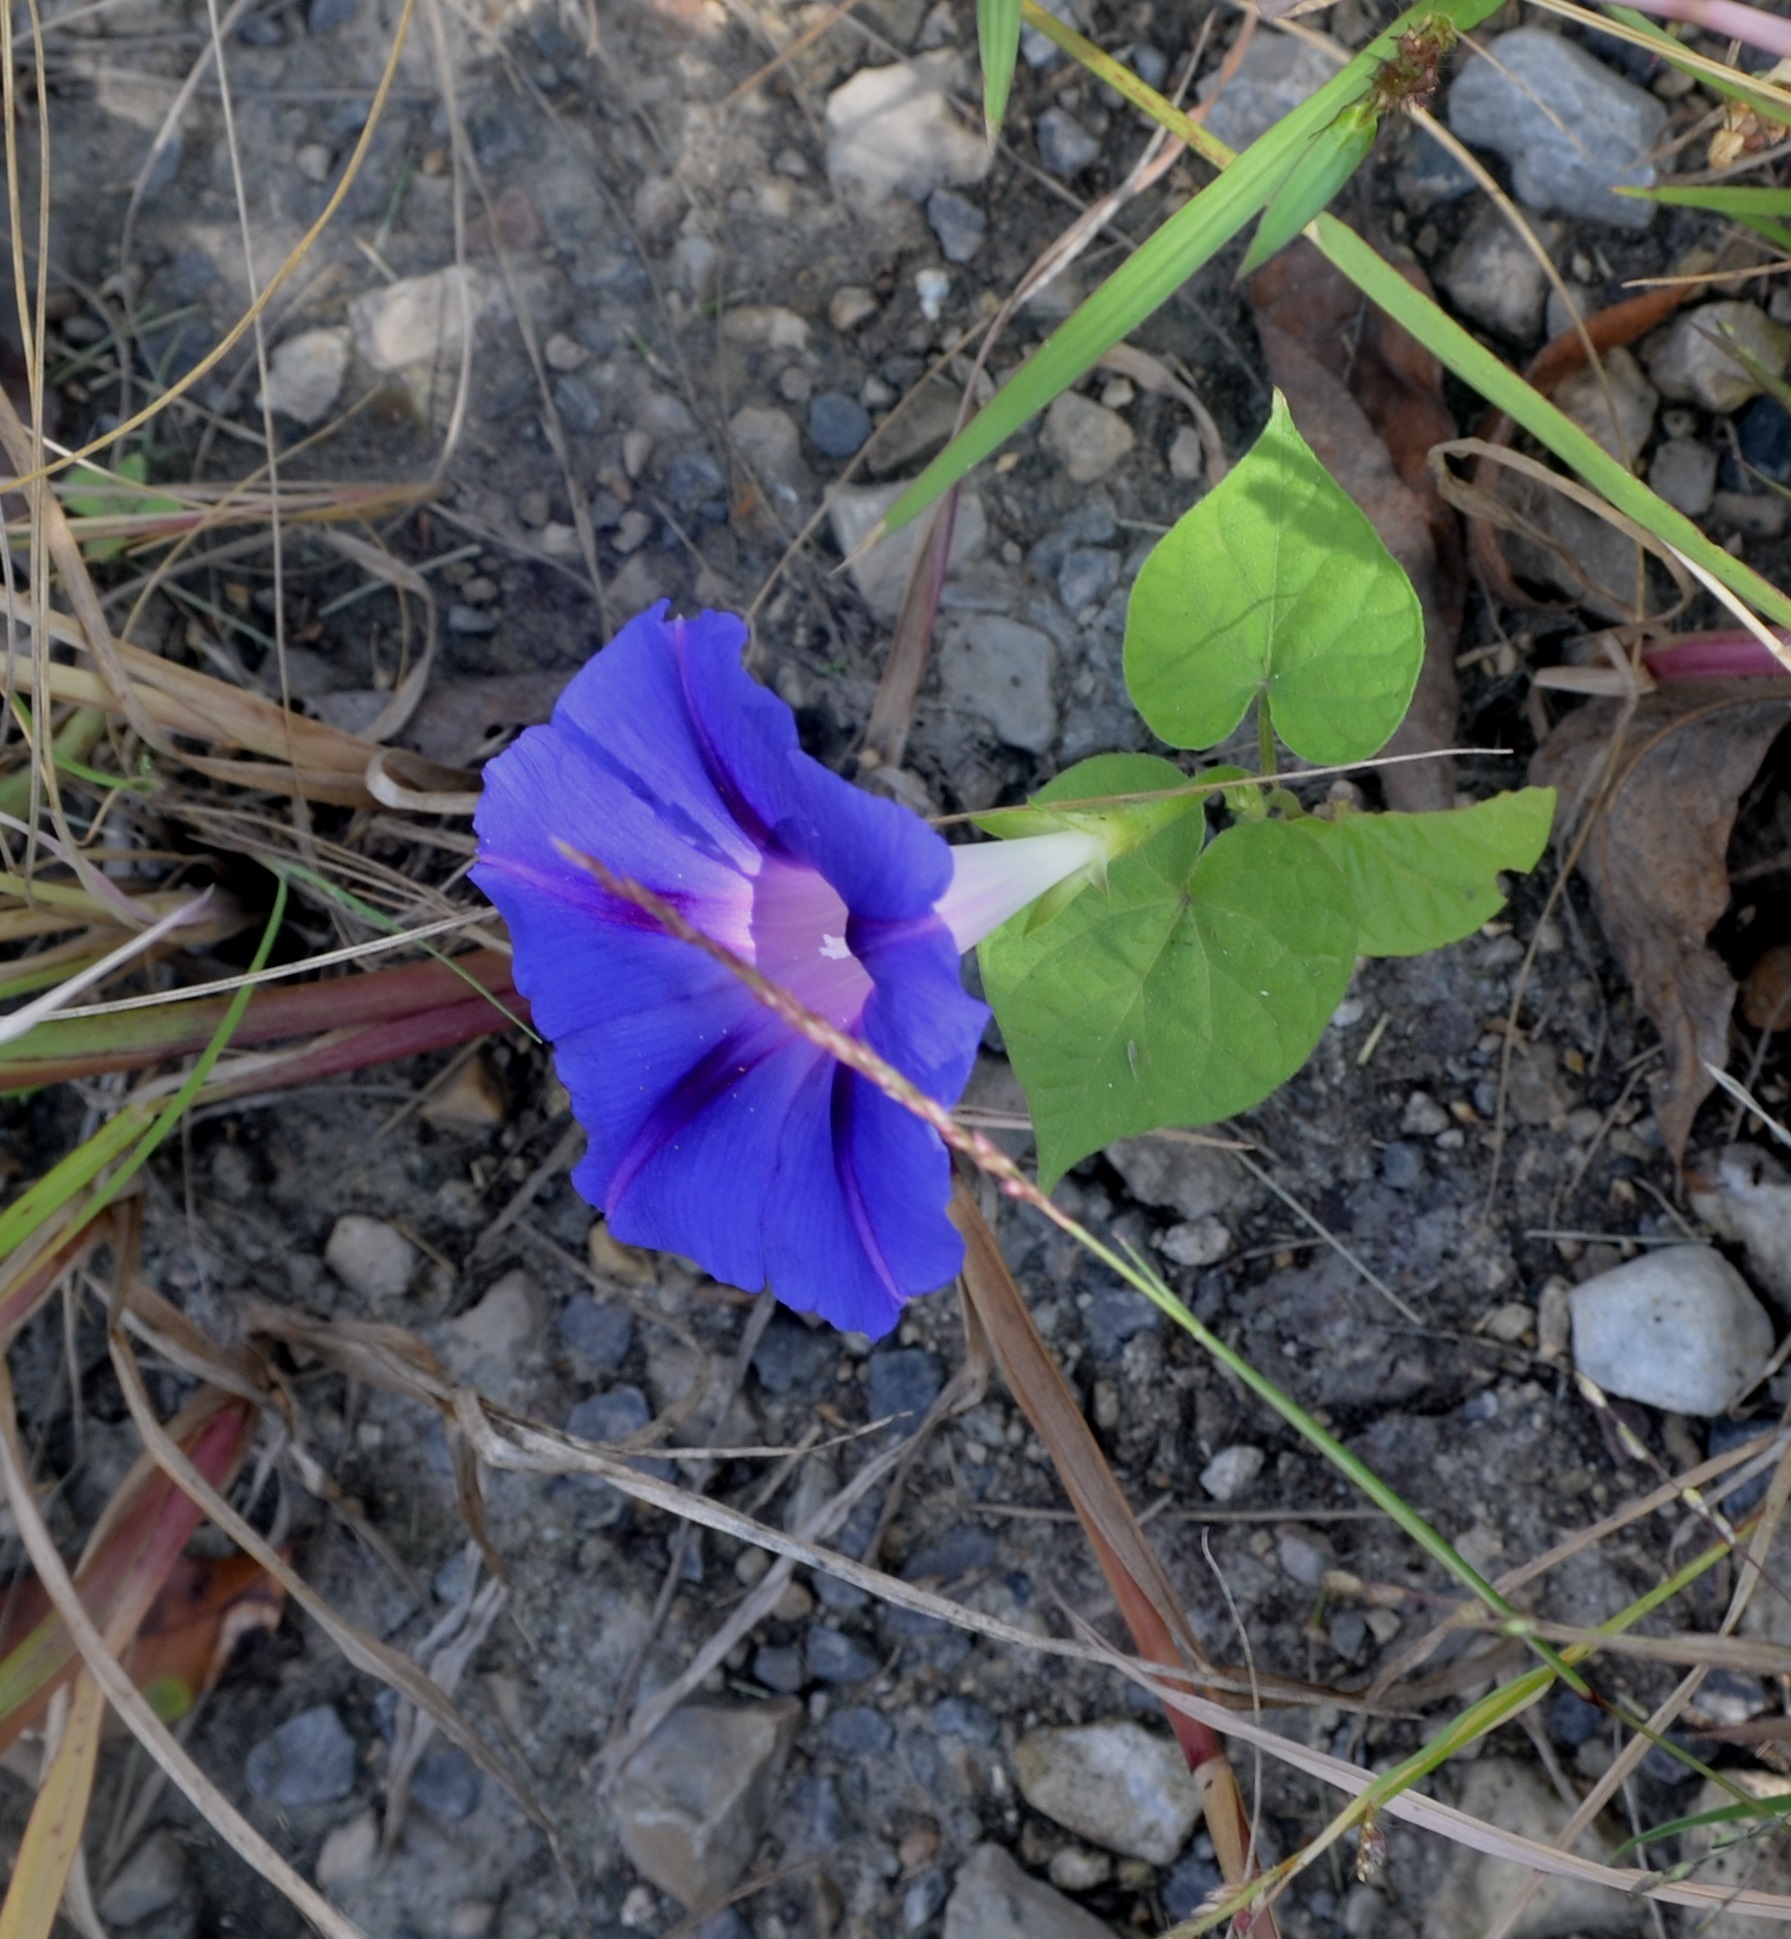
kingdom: Plantae
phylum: Tracheophyta
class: Magnoliopsida
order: Solanales
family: Convolvulaceae
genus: Ipomoea
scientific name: Ipomoea purpurea
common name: Common morning-glory
